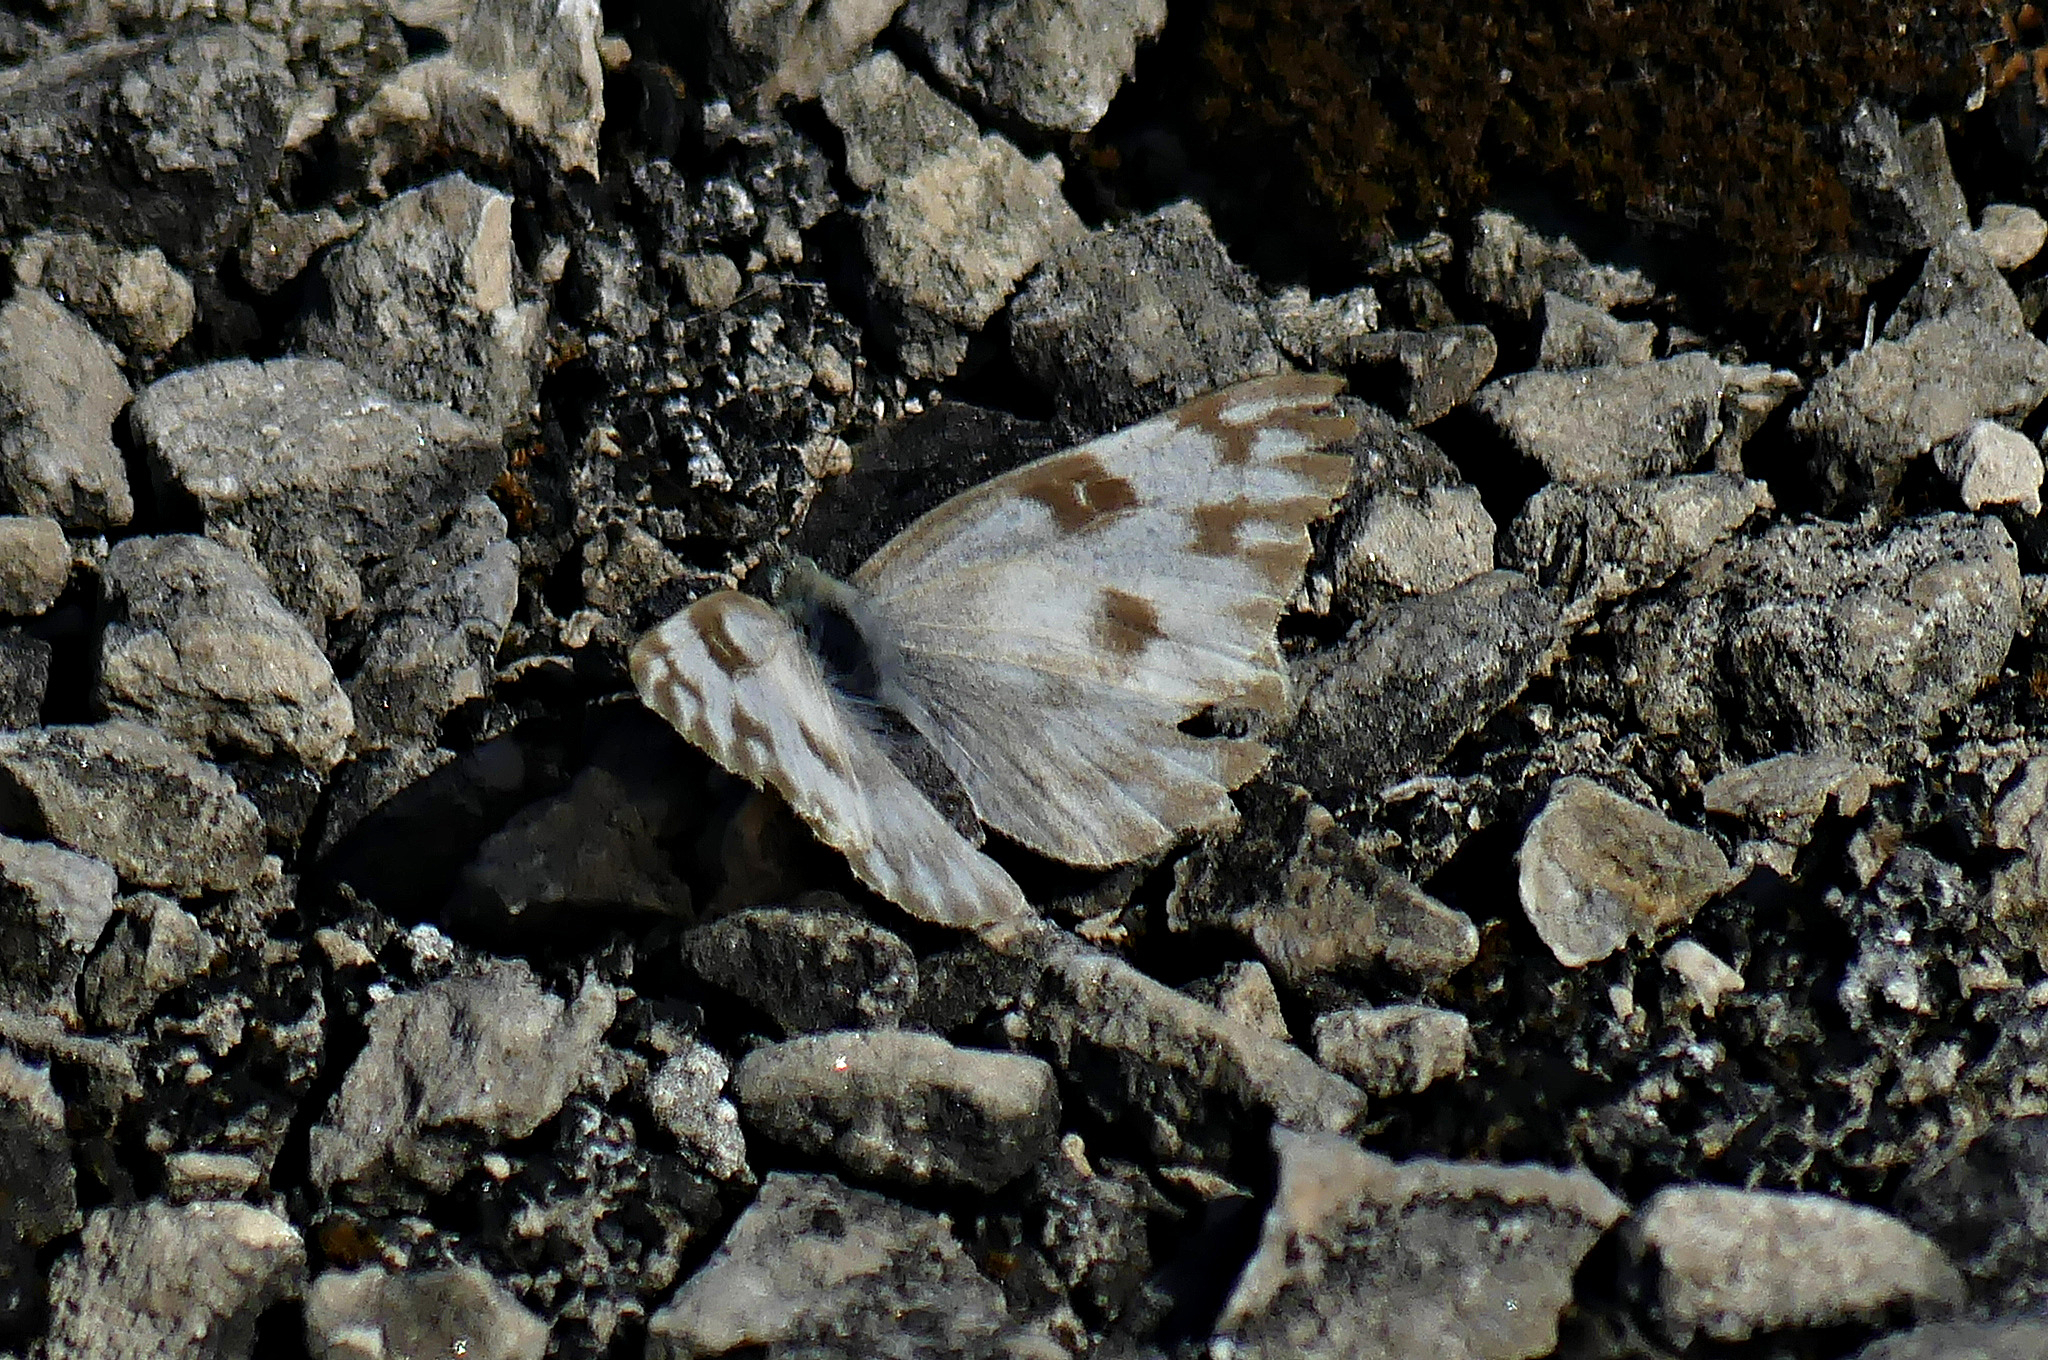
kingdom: Animalia
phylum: Arthropoda
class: Insecta
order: Lepidoptera
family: Pieridae
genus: Pontia
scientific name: Pontia protodice
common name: Checkered white
